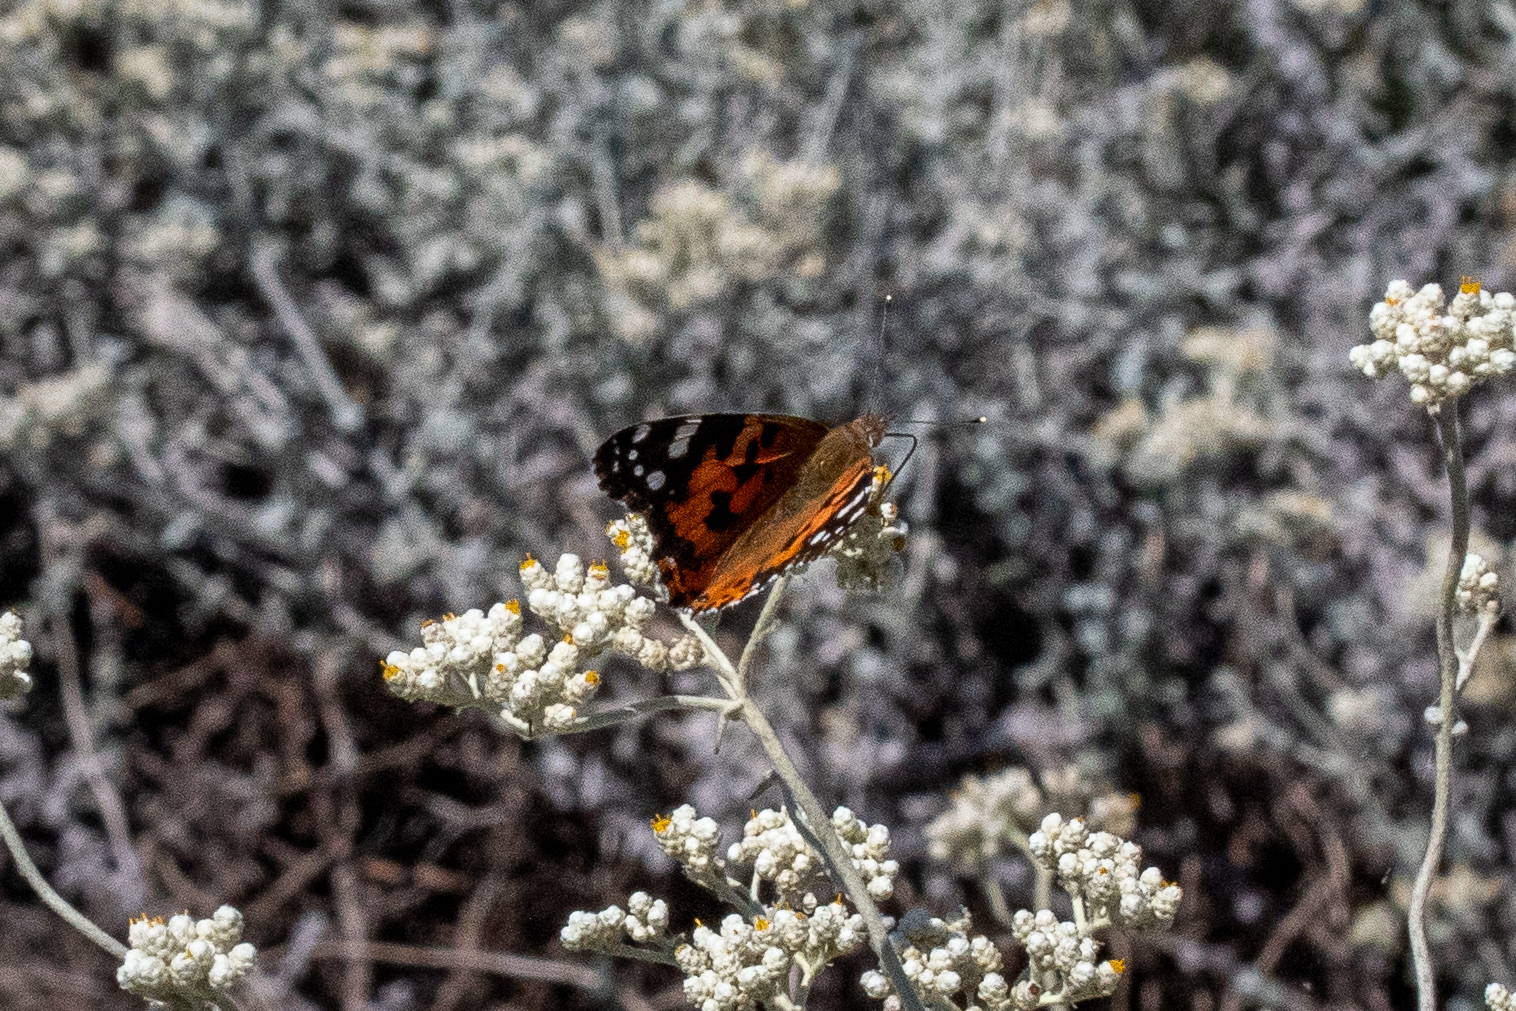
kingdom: Animalia
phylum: Arthropoda
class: Insecta
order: Lepidoptera
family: Nymphalidae
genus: Vanessa
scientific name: Vanessa cardui
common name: Painted lady
